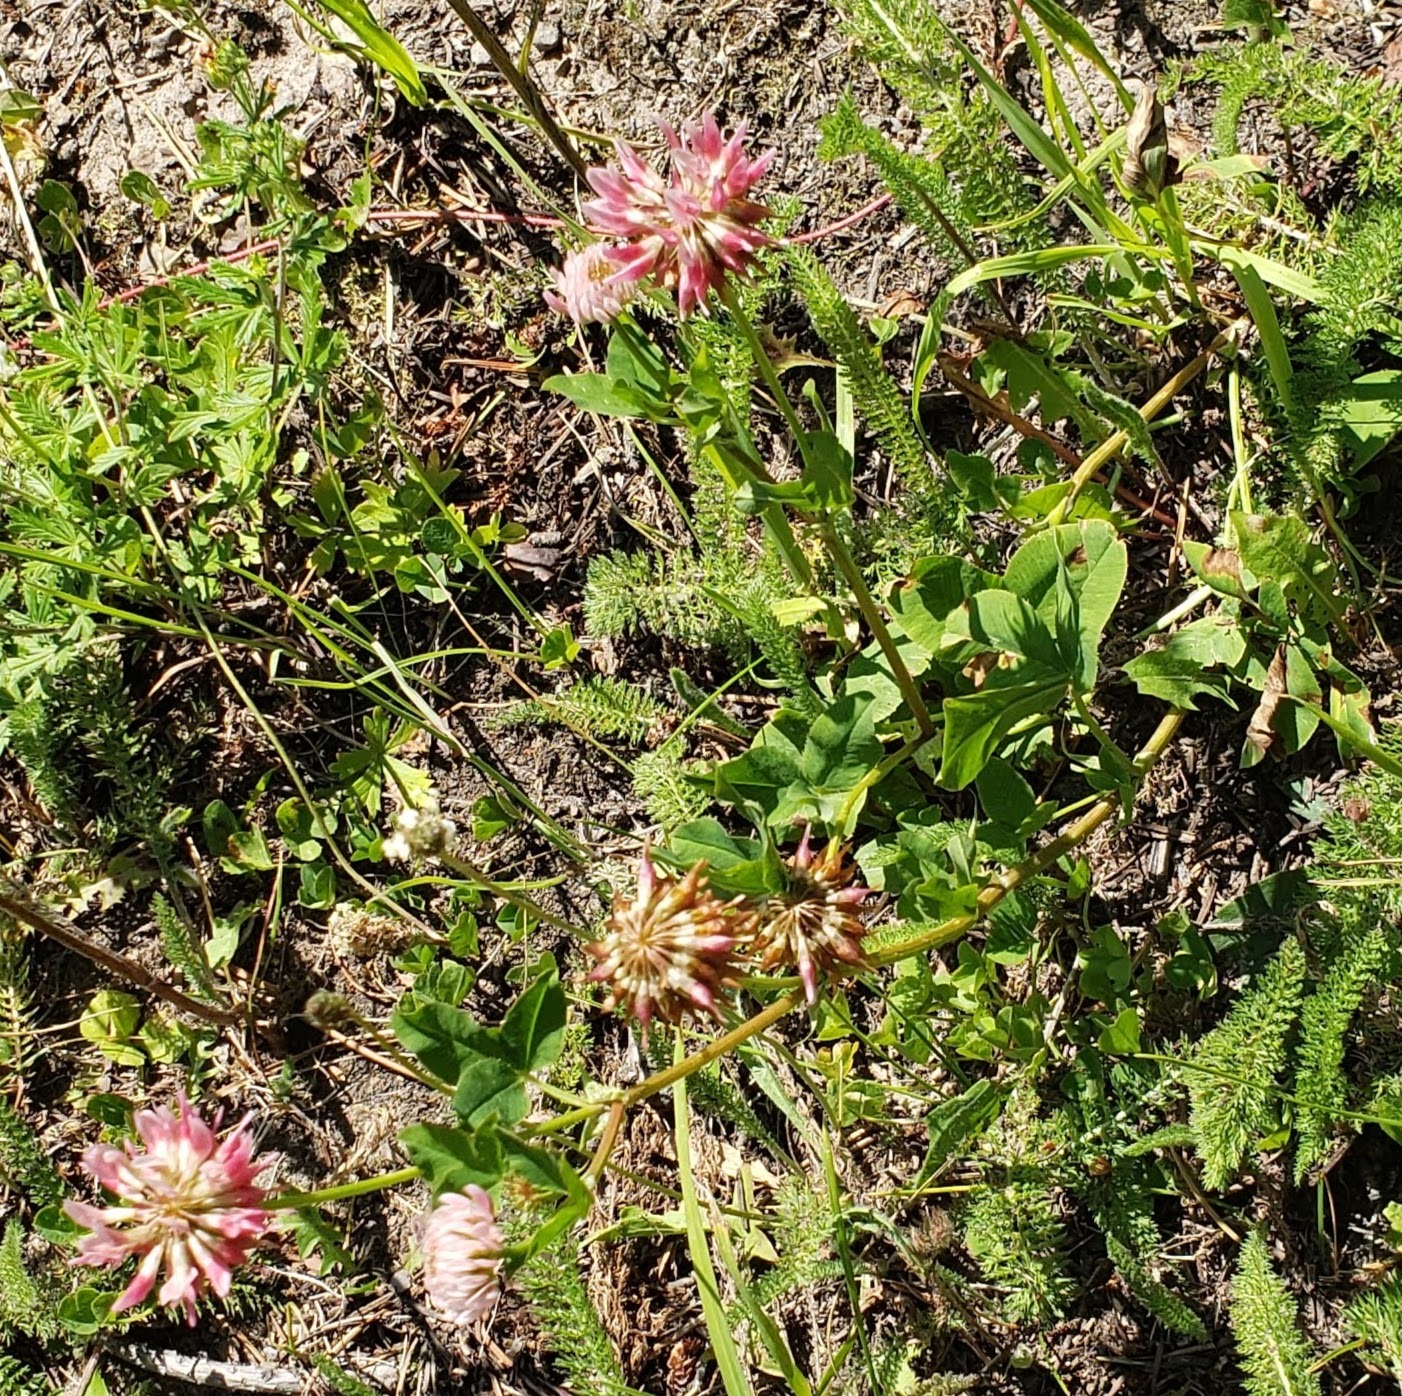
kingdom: Plantae
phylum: Tracheophyta
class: Magnoliopsida
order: Fabales
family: Fabaceae
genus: Trifolium
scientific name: Trifolium hybridum
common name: Alsike clover
